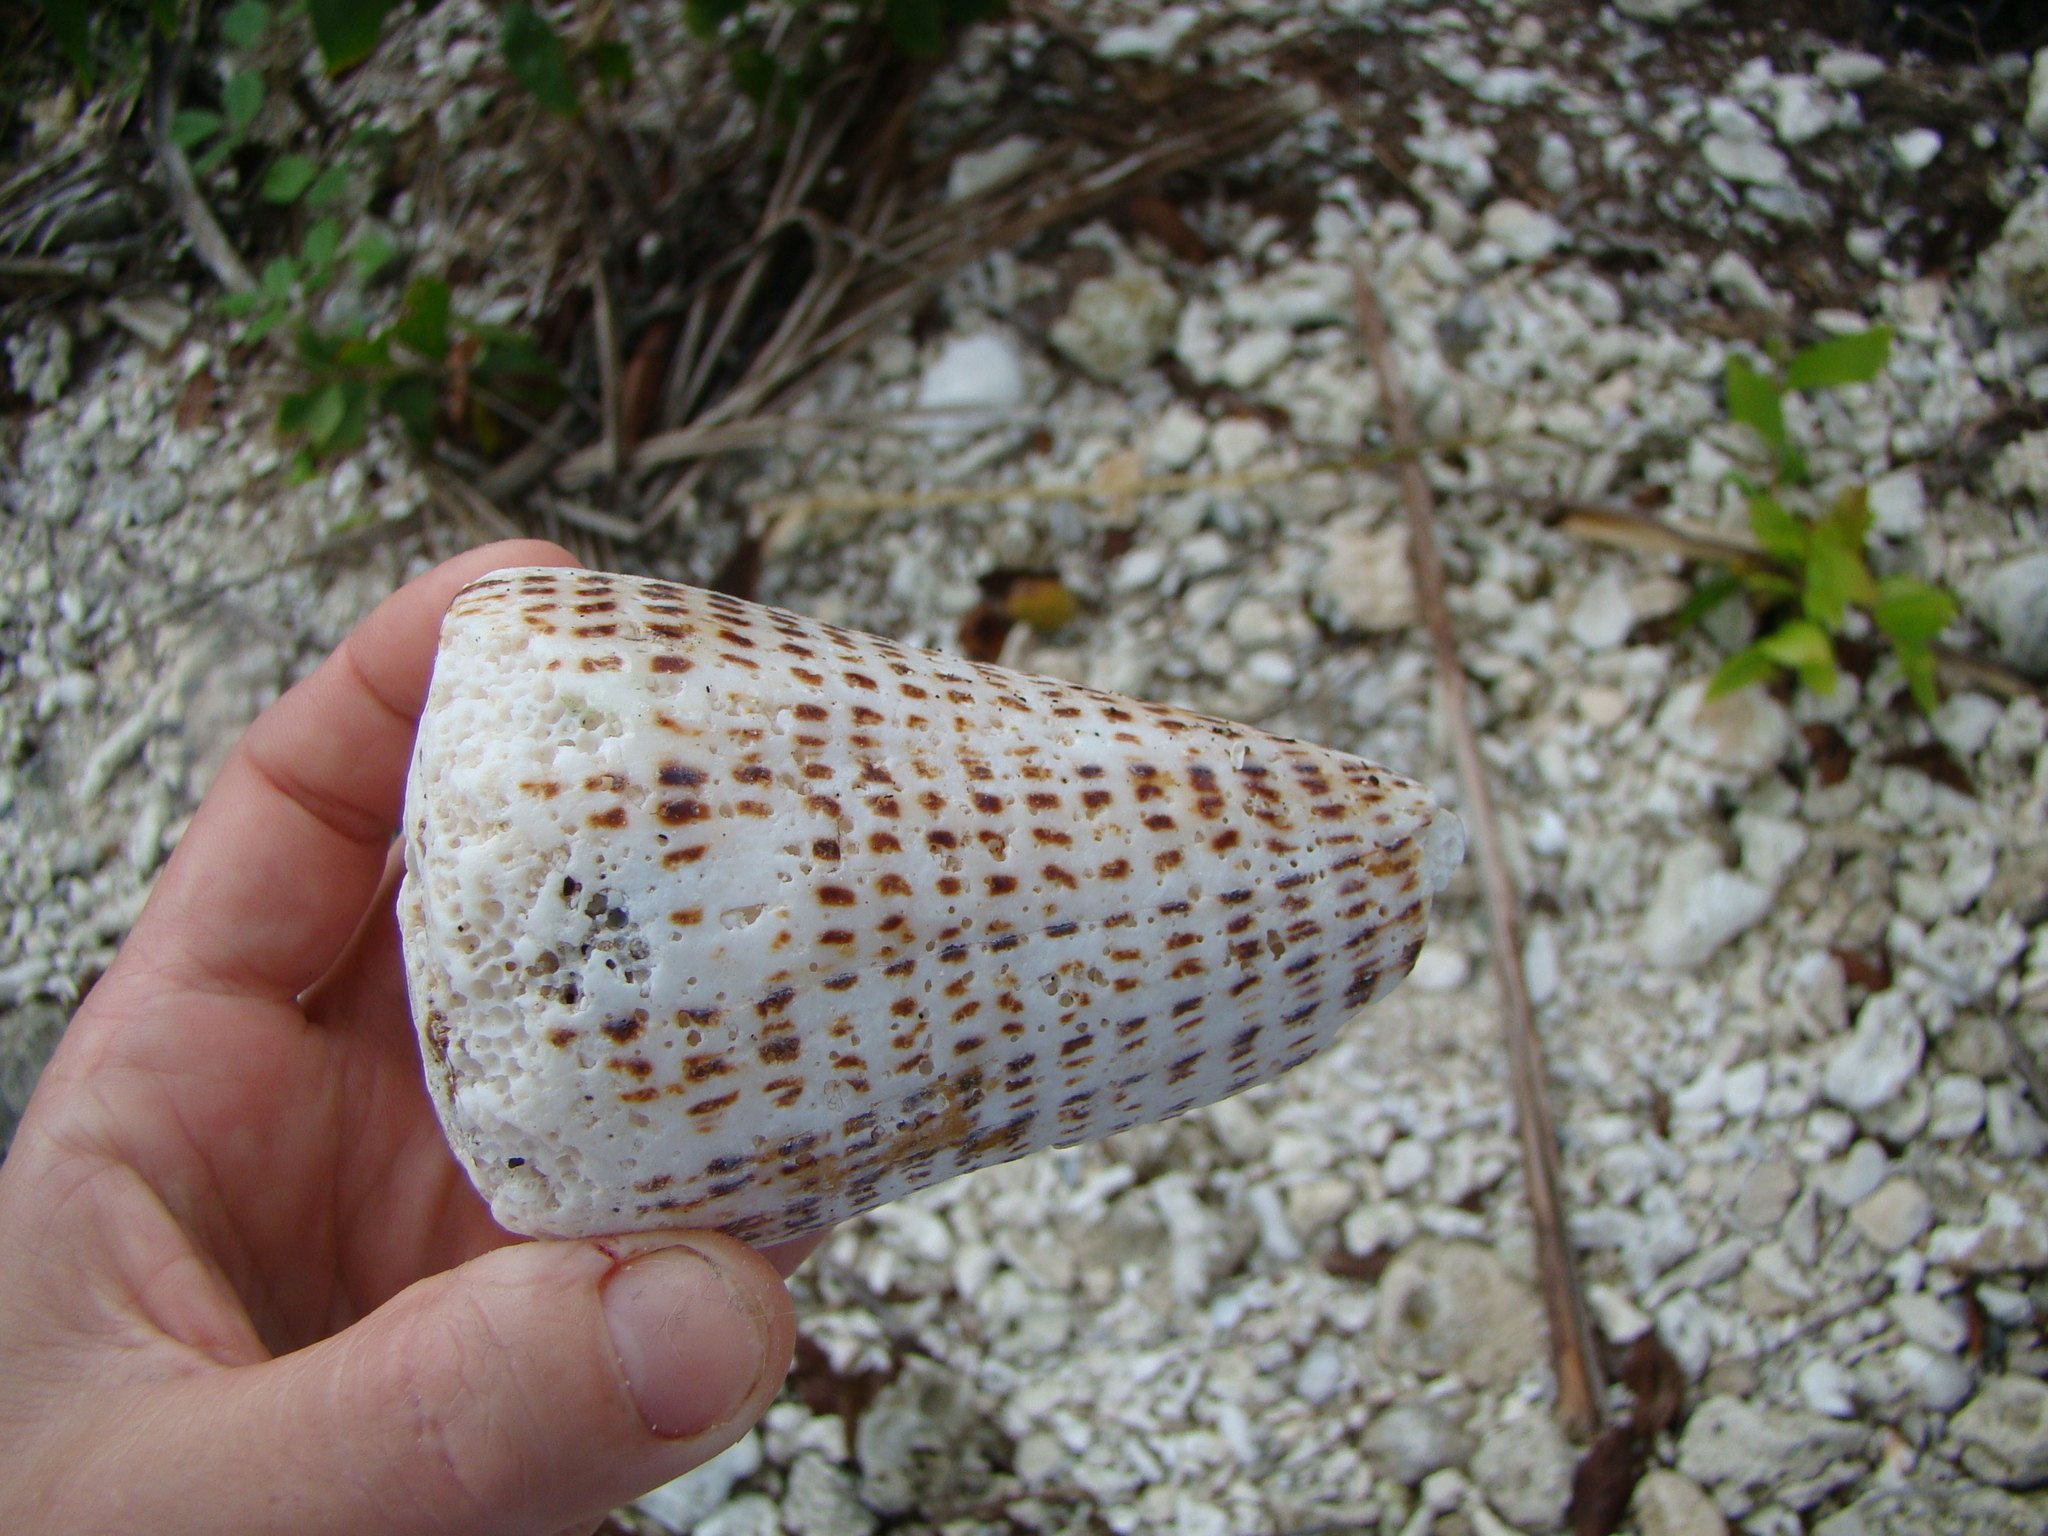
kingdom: Animalia
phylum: Mollusca
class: Gastropoda
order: Neogastropoda
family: Conidae
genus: Conus
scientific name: Conus litteratus
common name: Lettered cone
